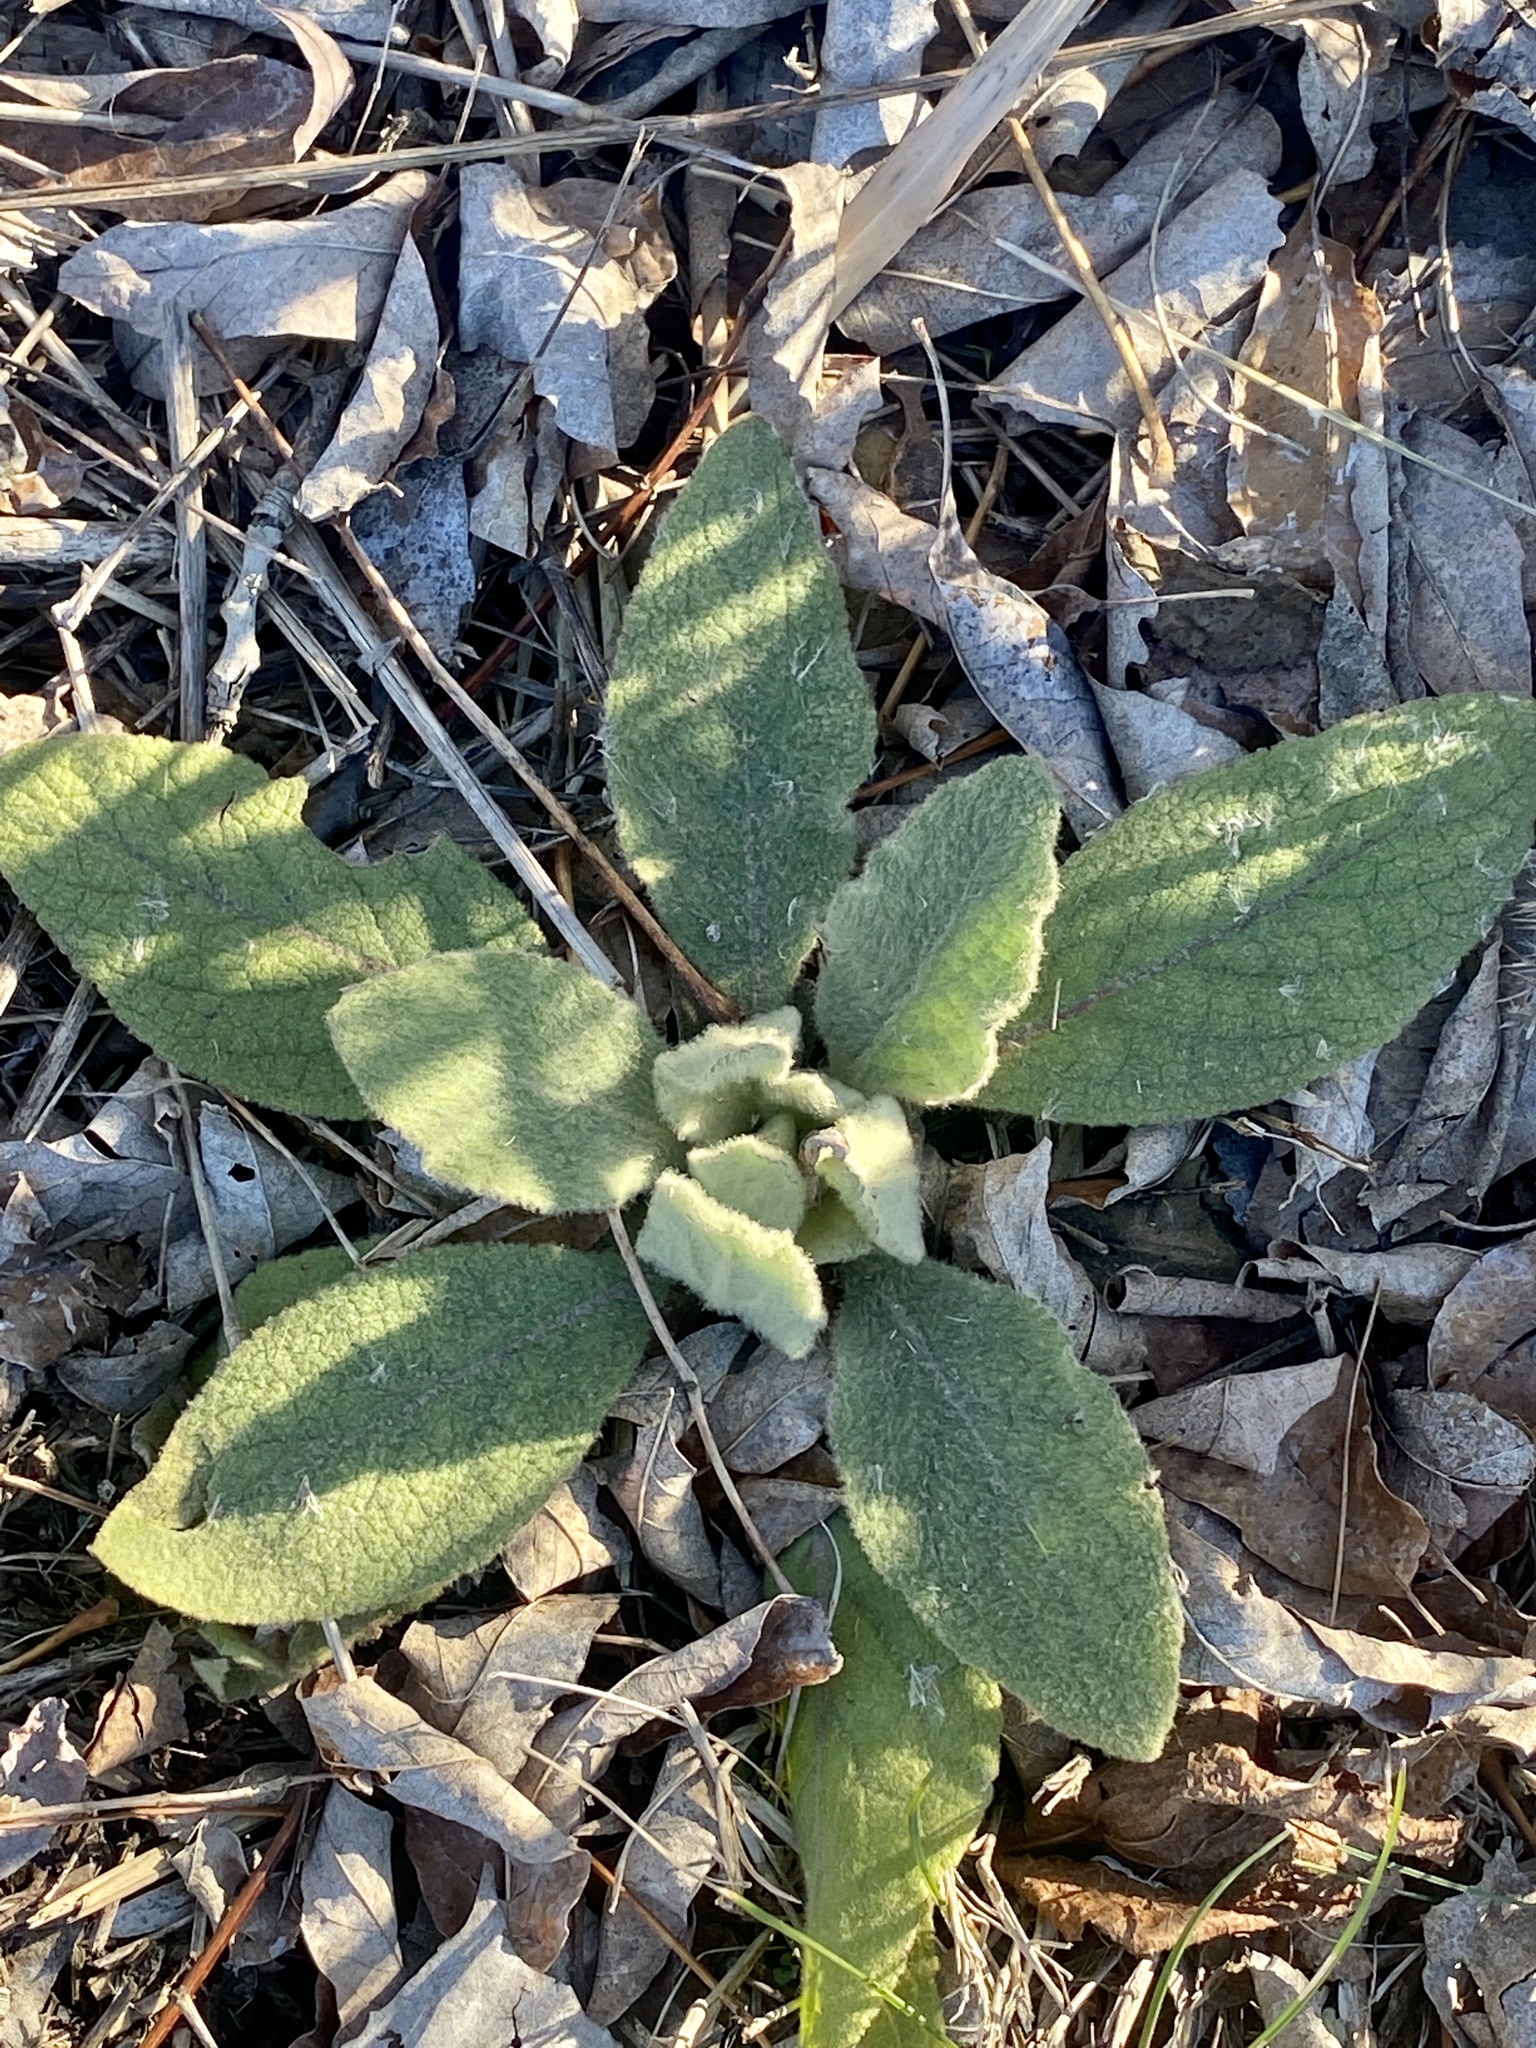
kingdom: Plantae
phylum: Tracheophyta
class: Magnoliopsida
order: Lamiales
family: Scrophulariaceae
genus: Verbascum
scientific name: Verbascum thapsus
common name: Common mullein
